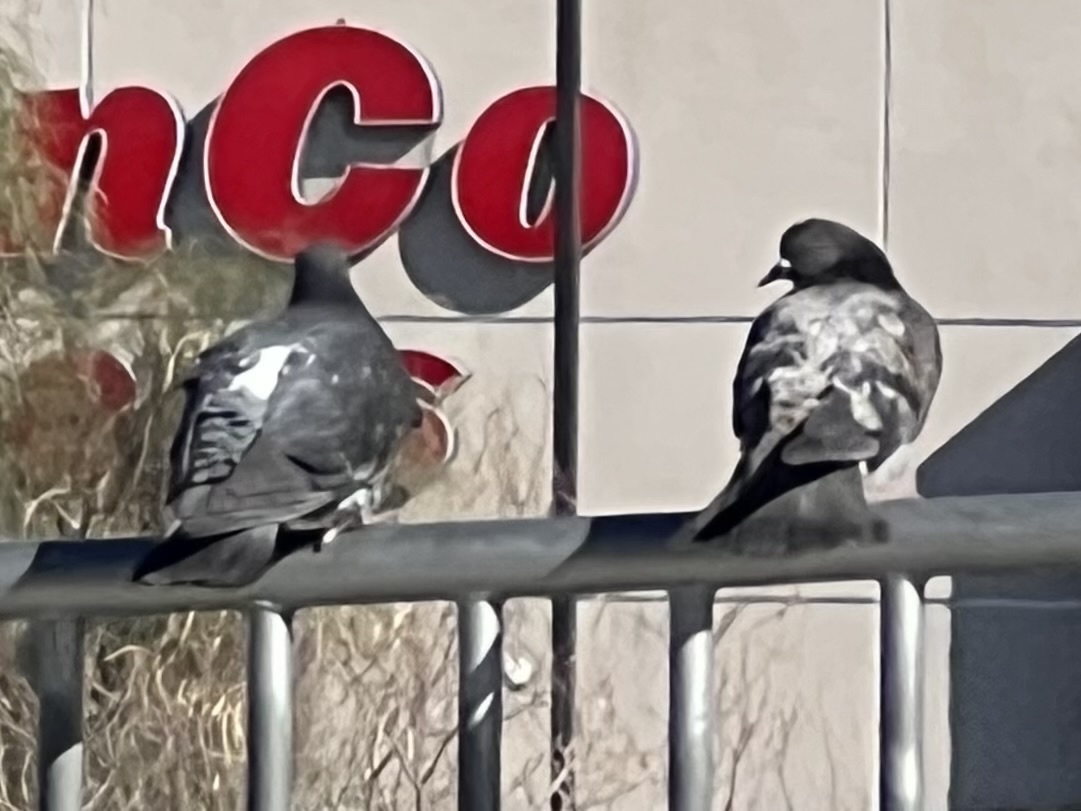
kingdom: Animalia
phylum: Chordata
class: Aves
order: Columbiformes
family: Columbidae
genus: Columba
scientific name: Columba livia
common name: Rock pigeon
